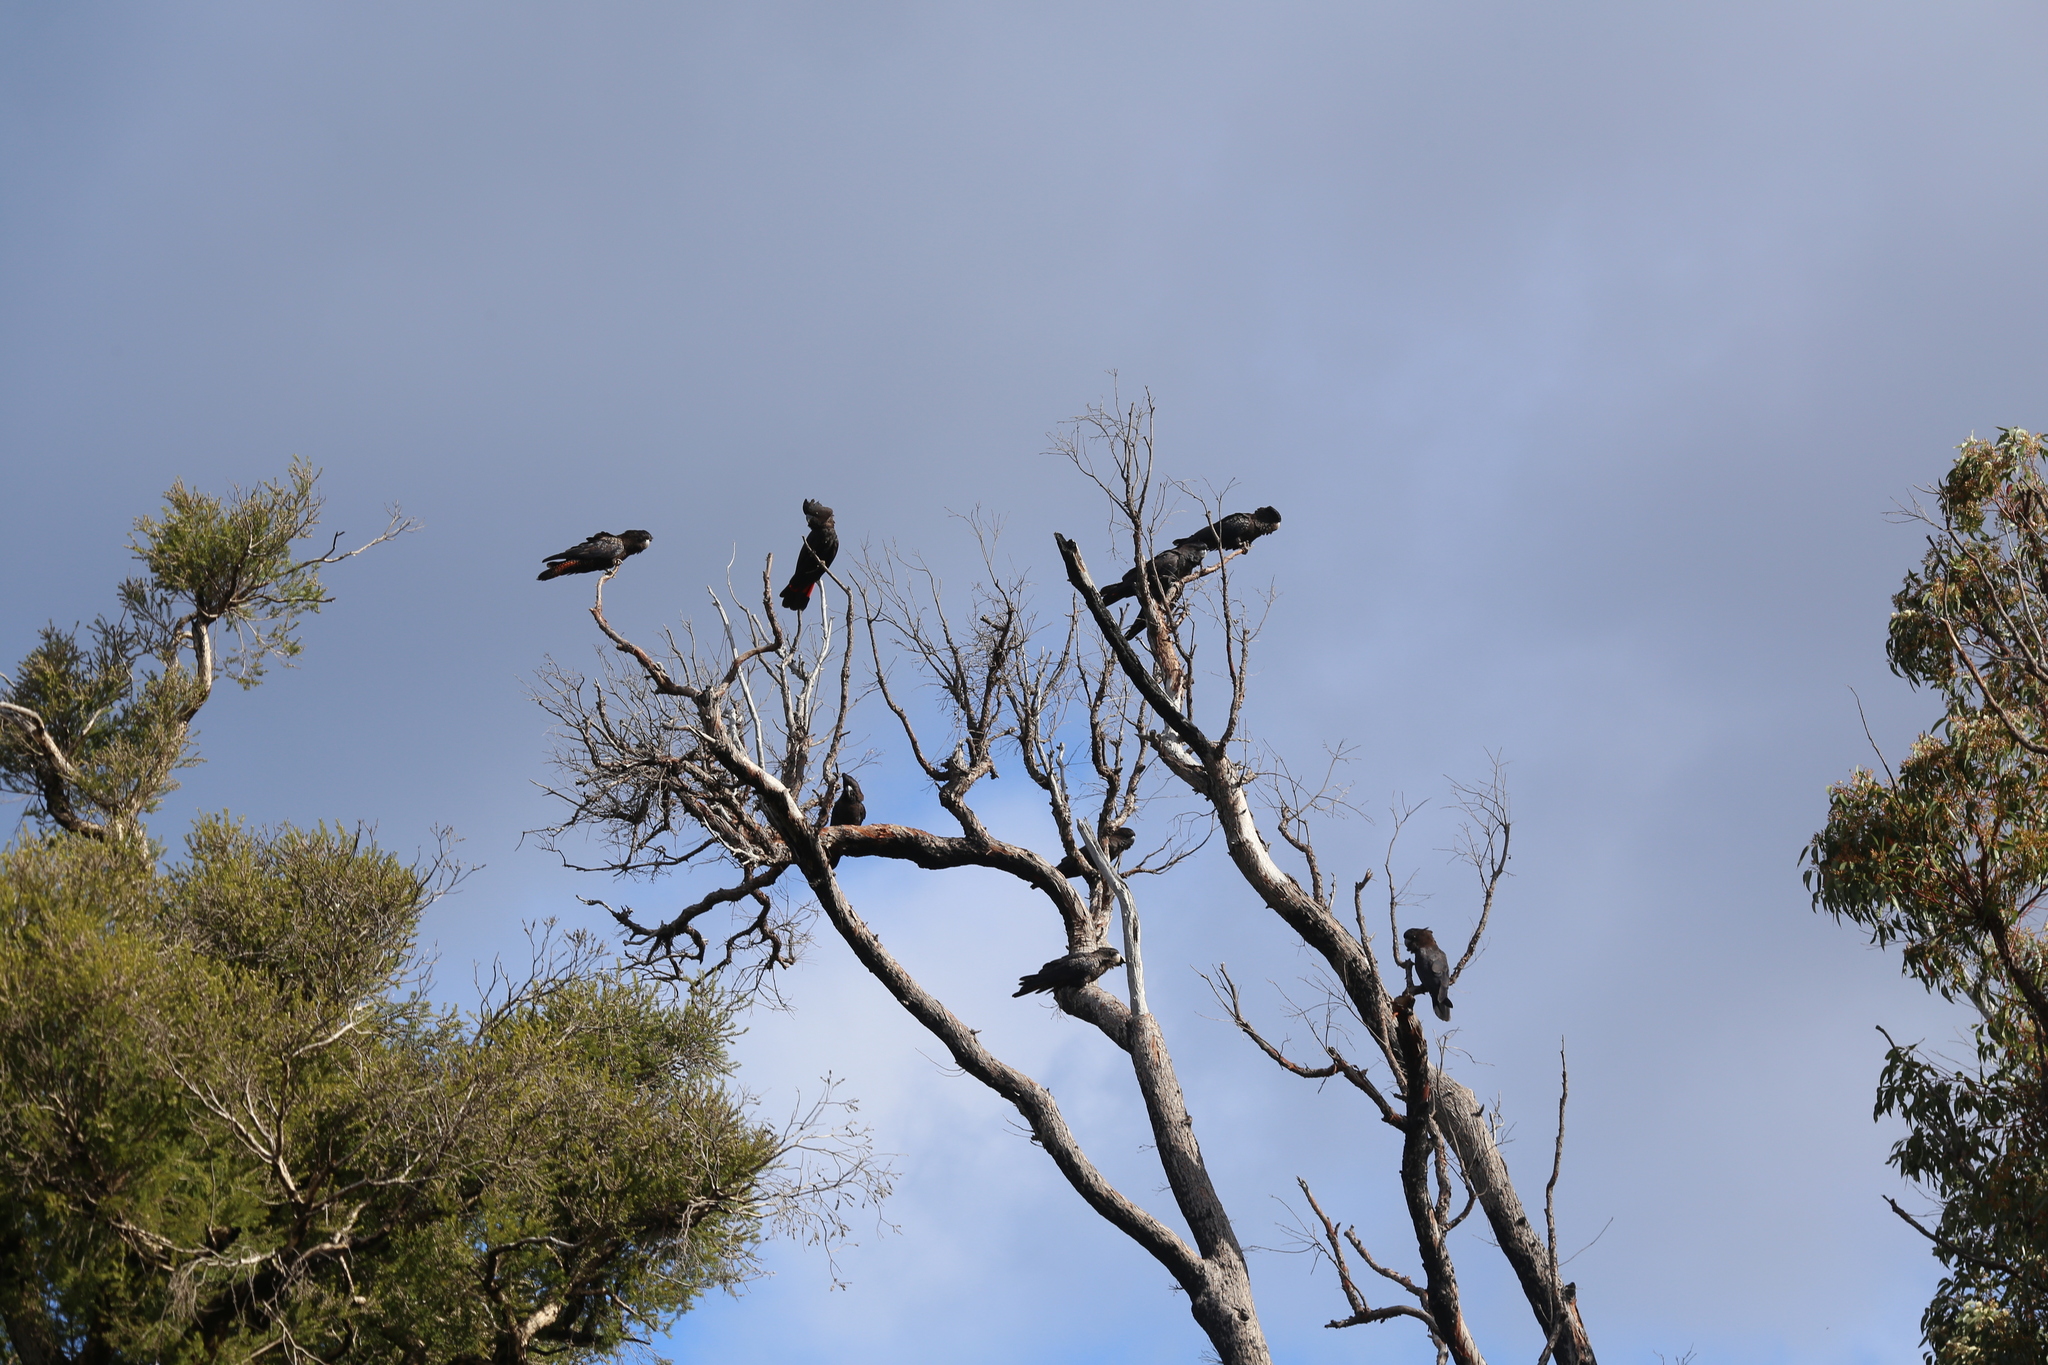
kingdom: Animalia
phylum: Chordata
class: Aves
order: Psittaciformes
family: Psittacidae
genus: Calyptorhynchus
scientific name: Calyptorhynchus banksii
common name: Red-tailed black cockatoo
